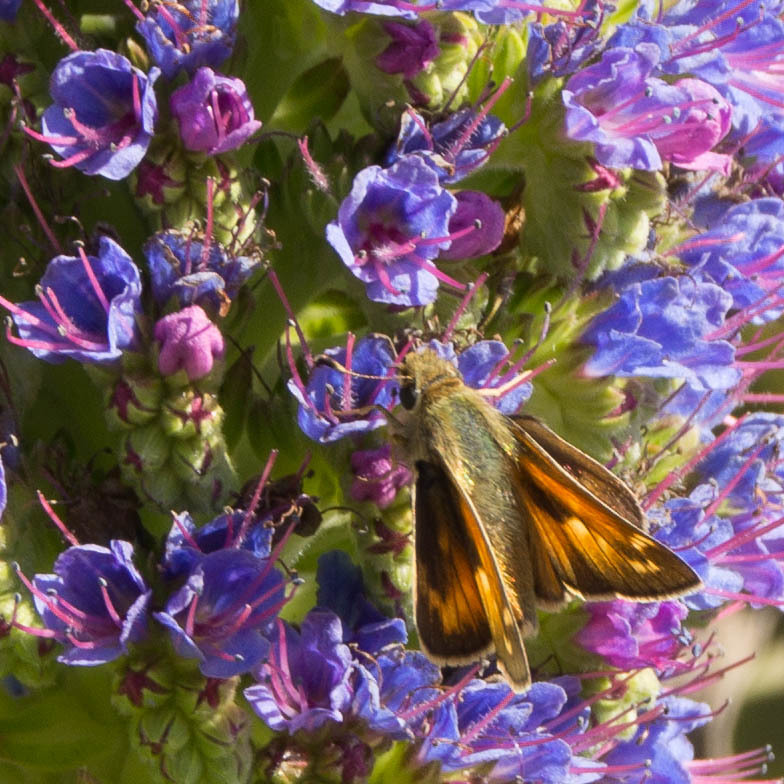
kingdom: Animalia
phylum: Arthropoda
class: Insecta
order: Lepidoptera
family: Hesperiidae
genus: Atalopedes
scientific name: Atalopedes campestris
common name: Sachem
